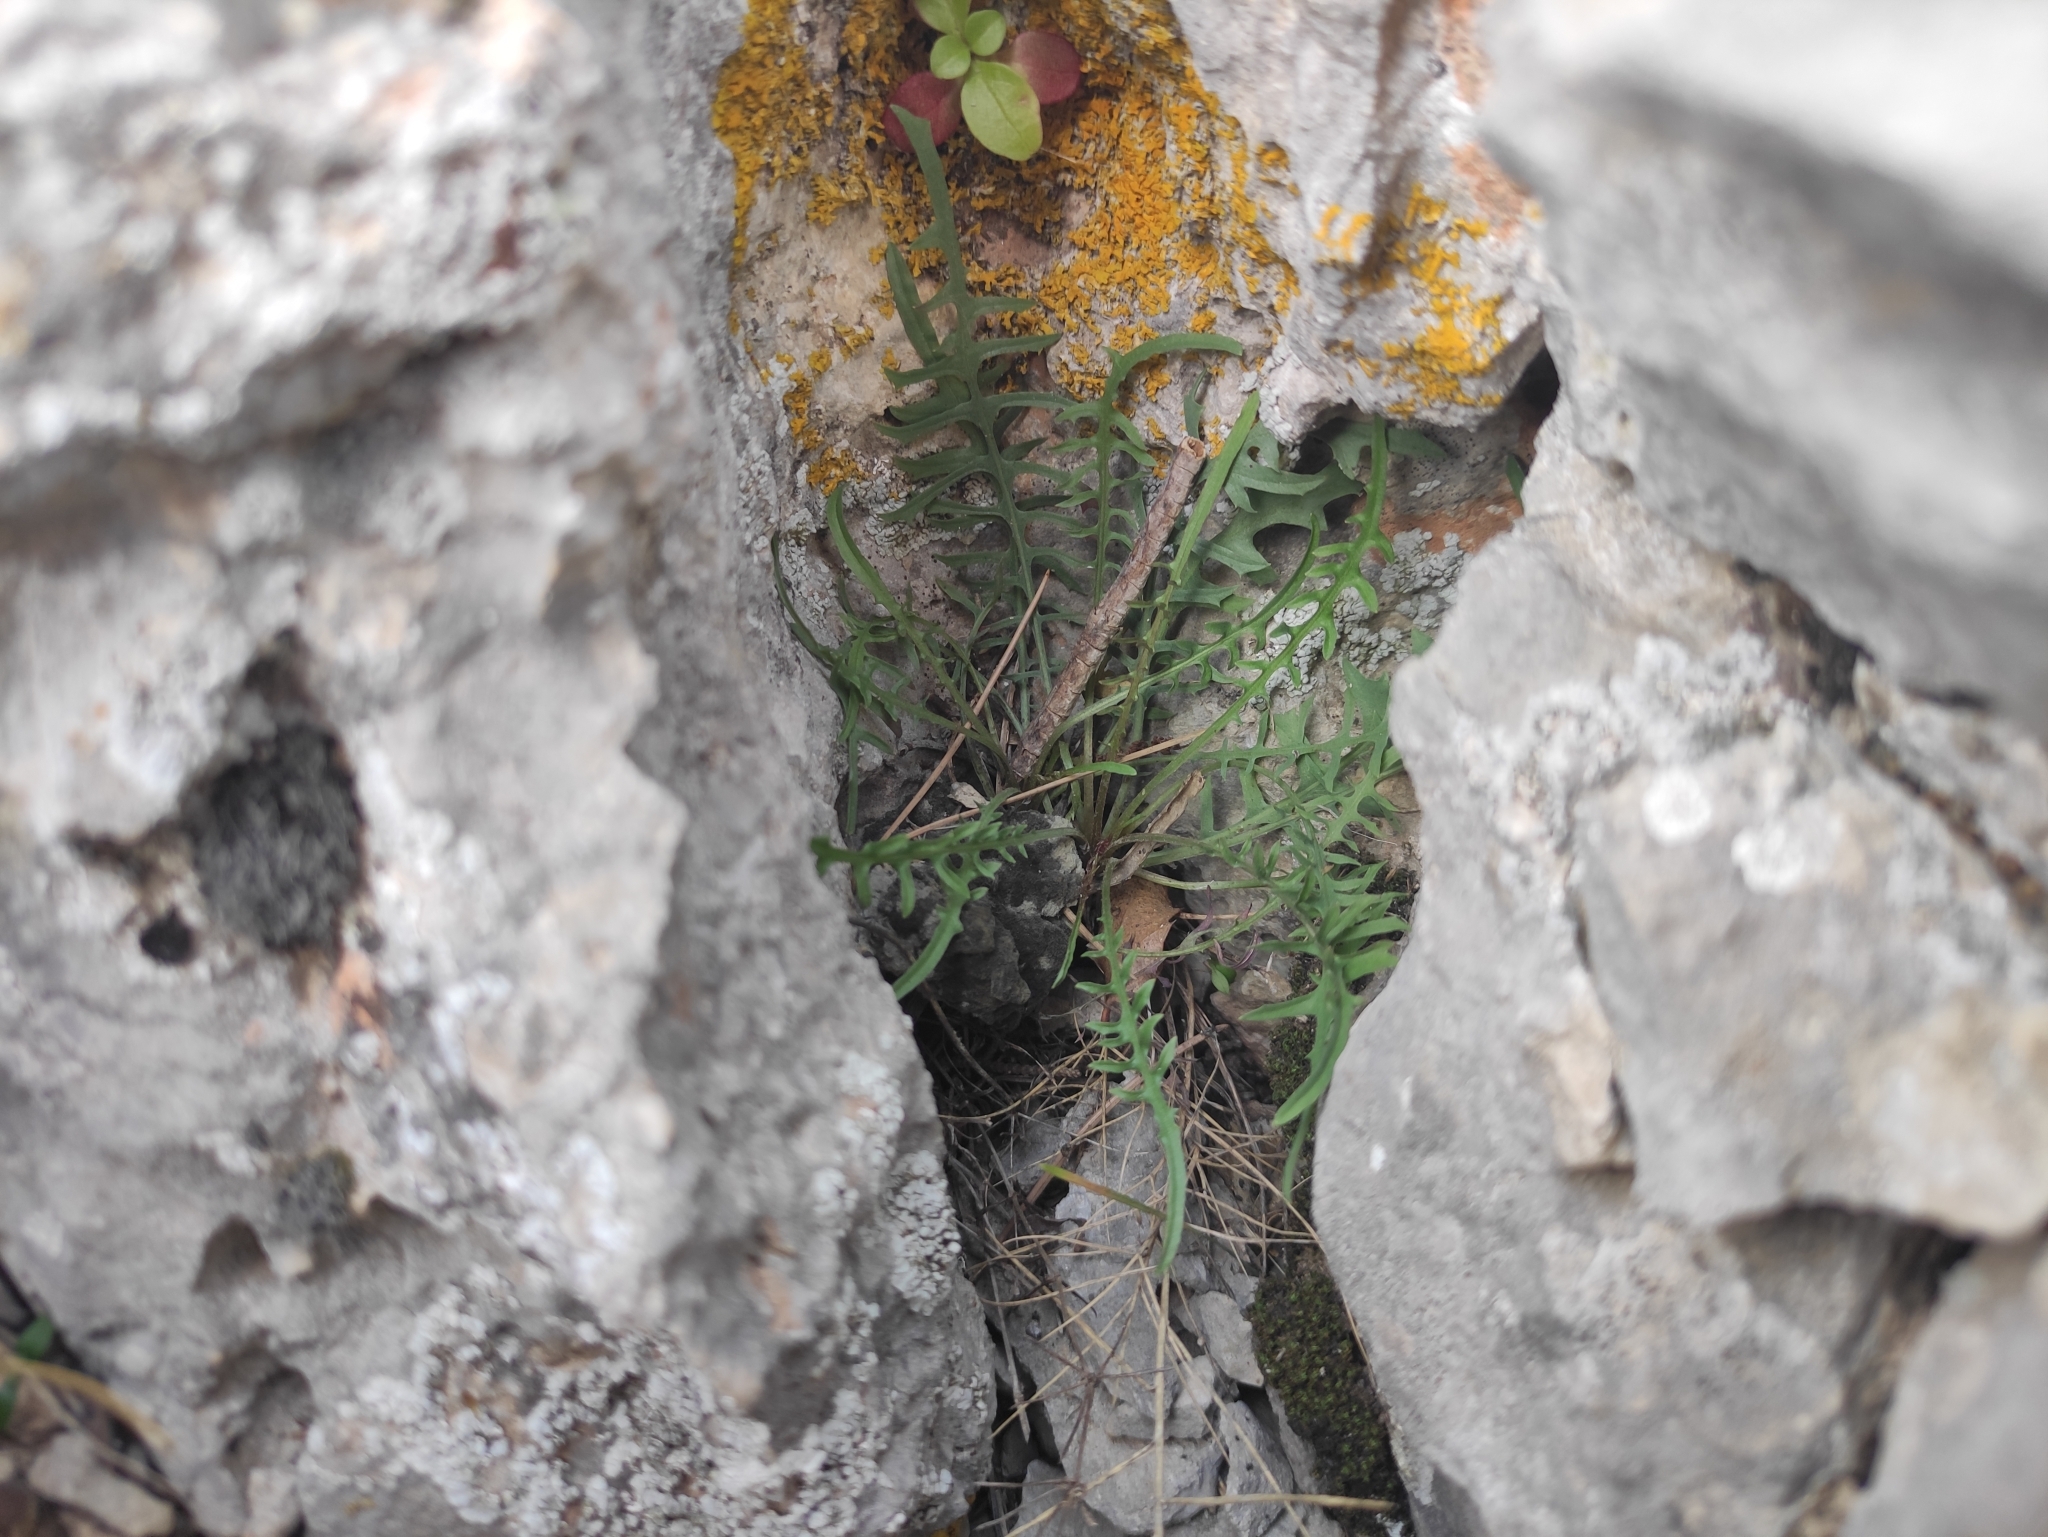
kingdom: Plantae
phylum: Tracheophyta
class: Magnoliopsida
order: Asterales
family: Asteraceae
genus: Lactuca
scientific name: Lactuca perennis
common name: Mountain lettuce
